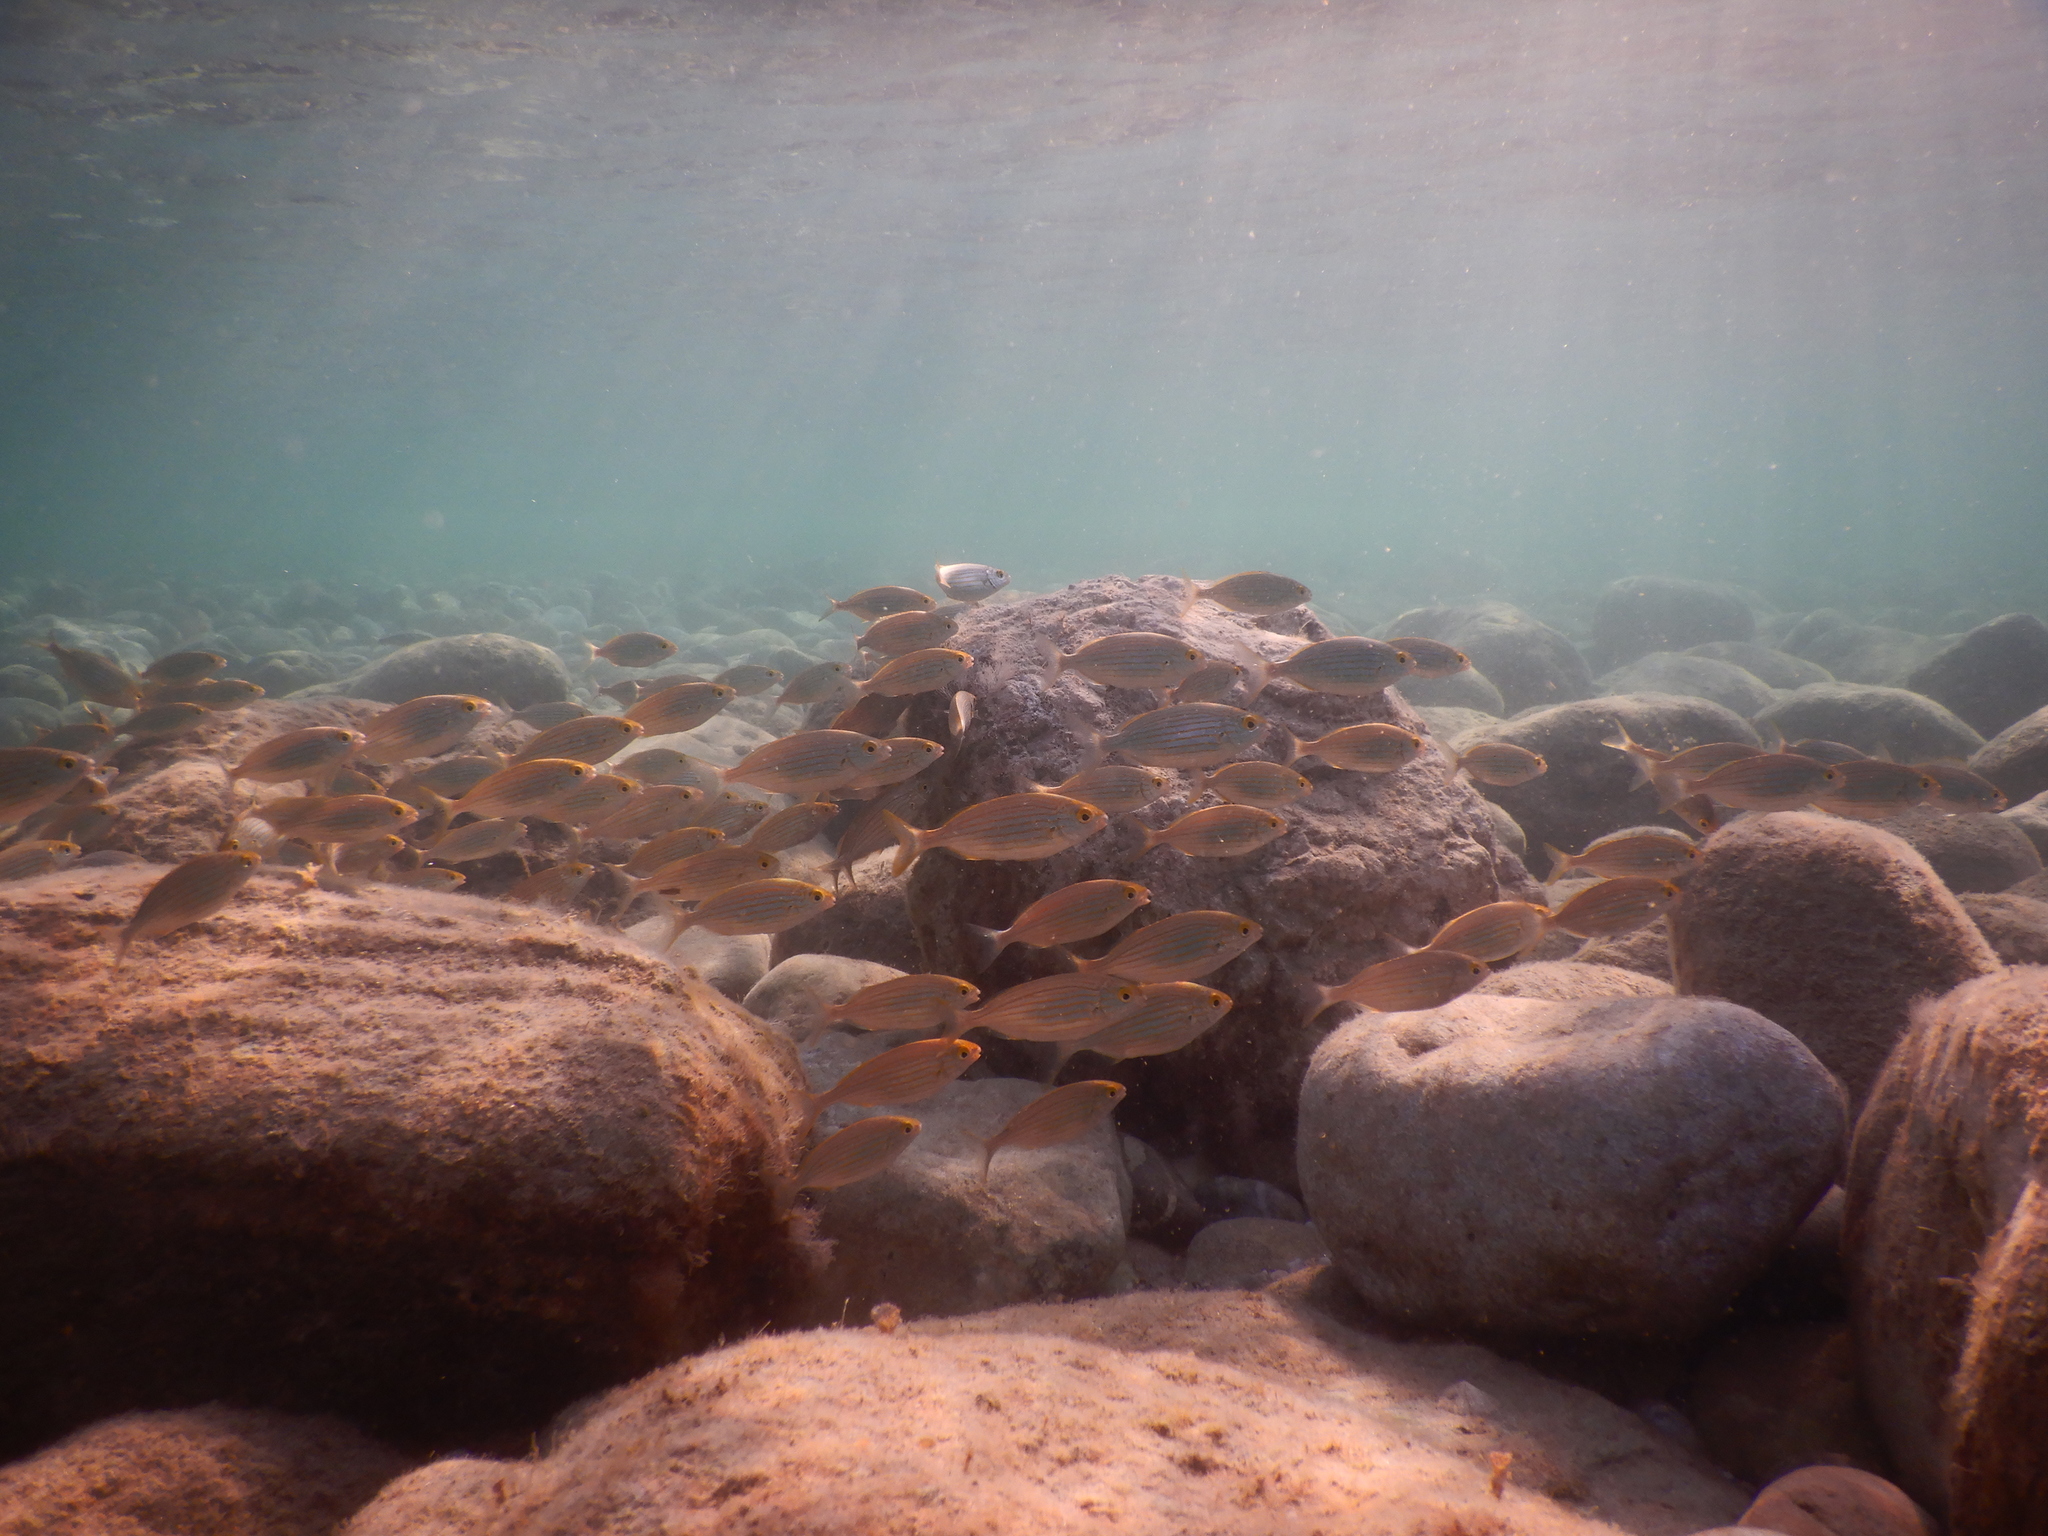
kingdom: Animalia
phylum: Chordata
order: Perciformes
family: Sparidae
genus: Sarpa
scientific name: Sarpa salpa
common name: Salema
